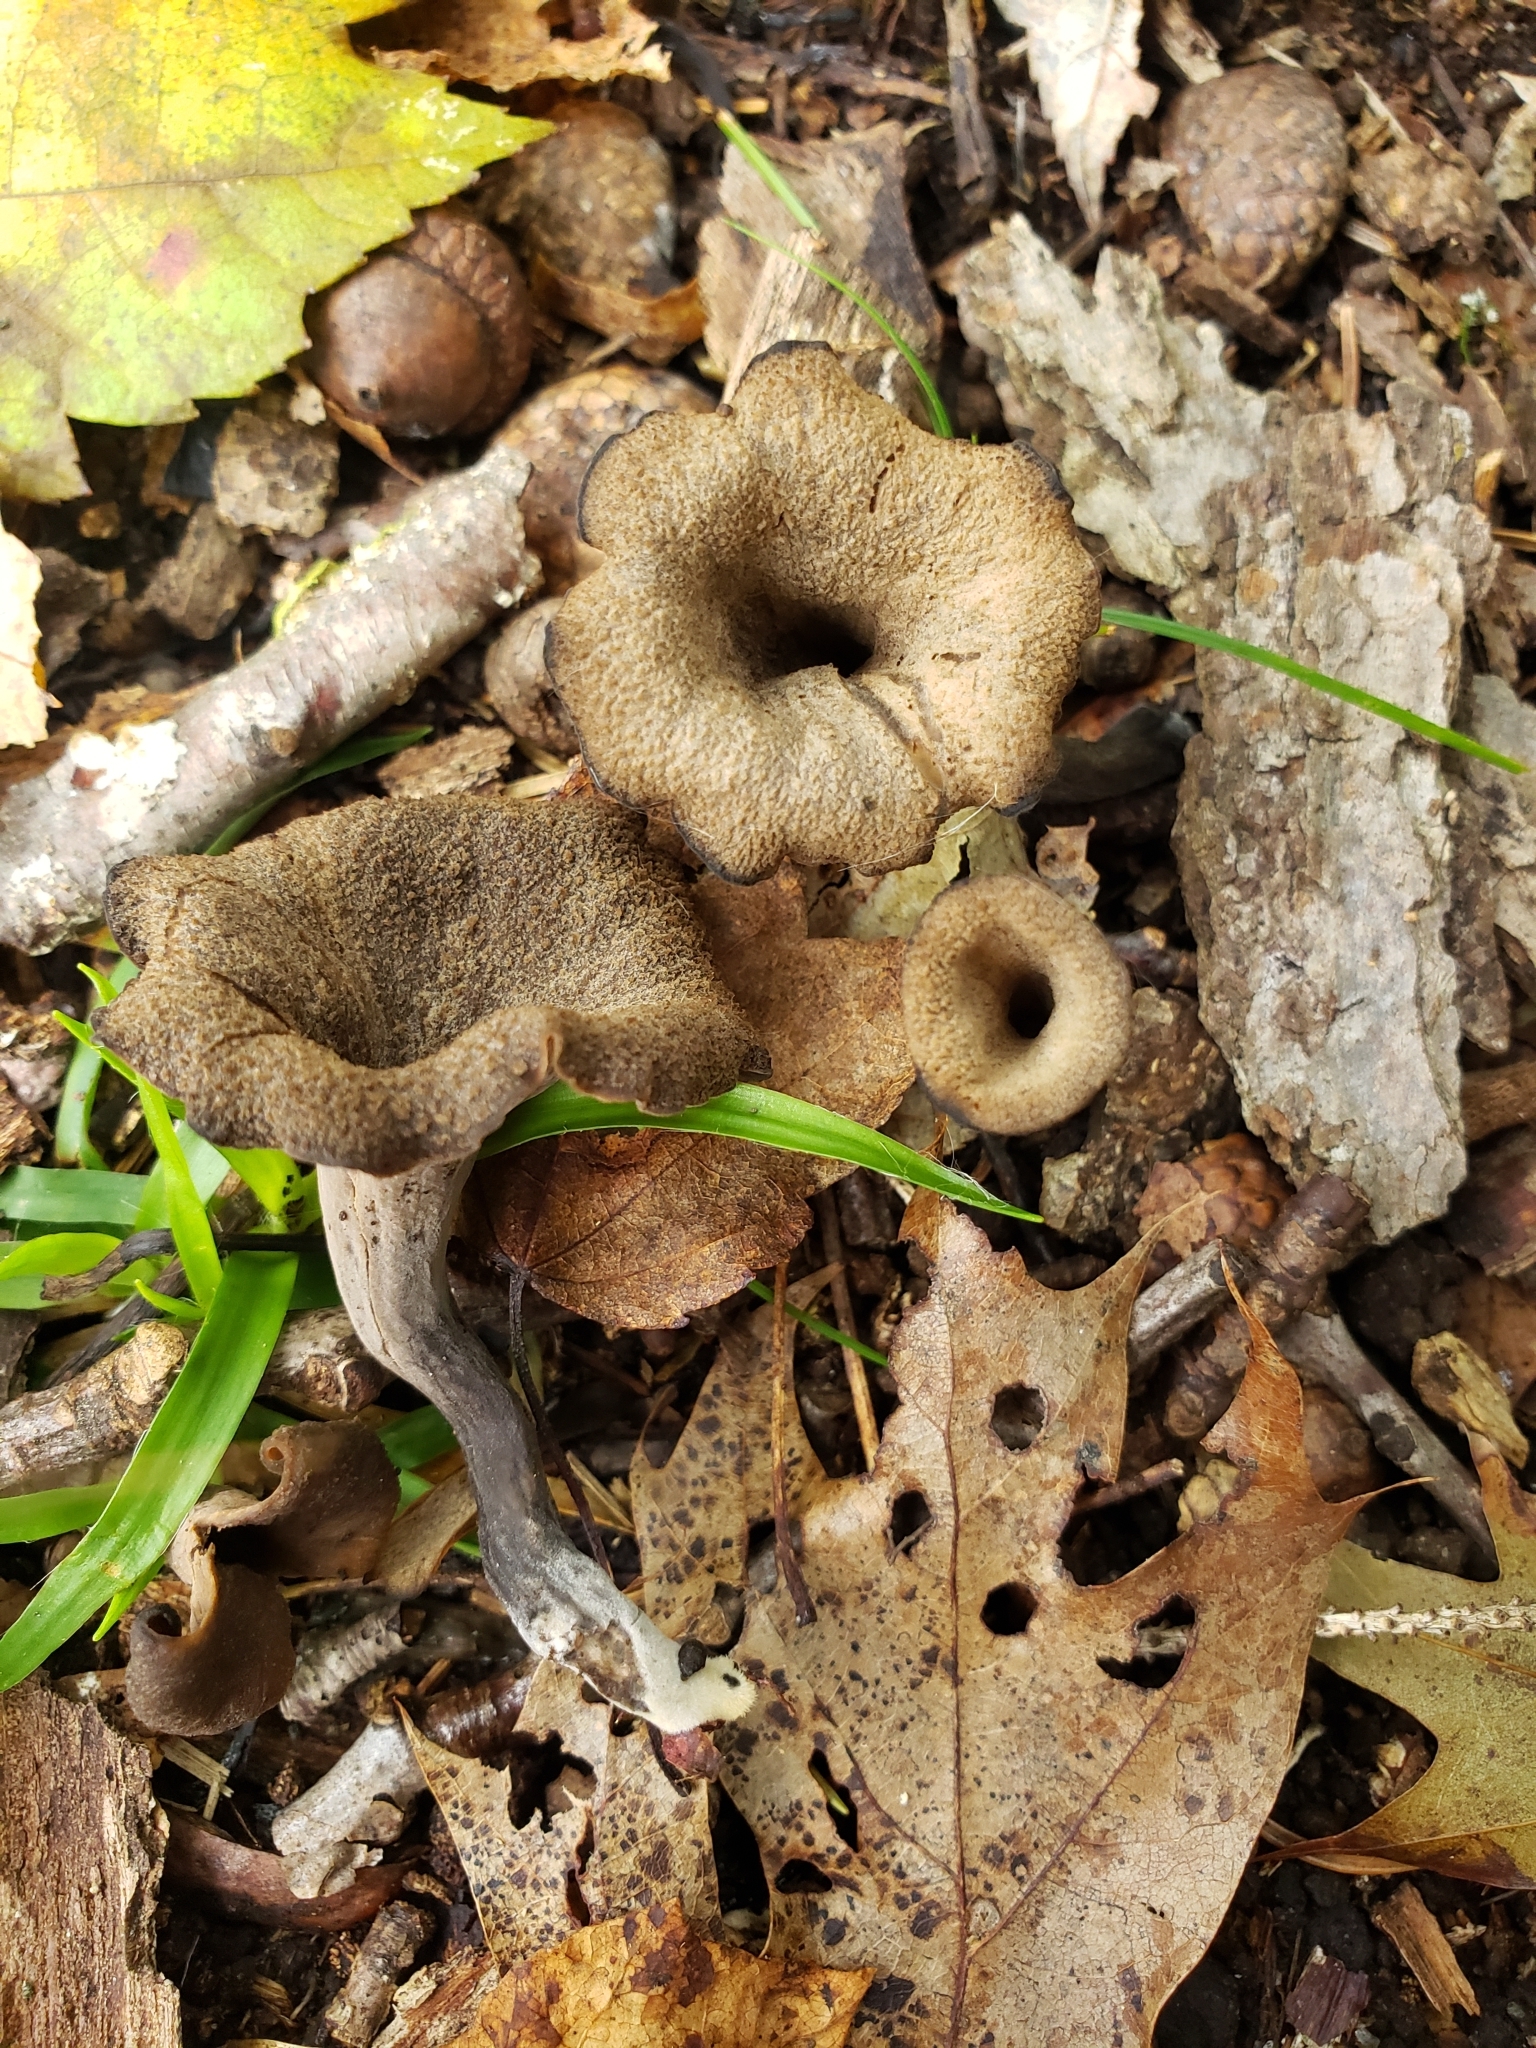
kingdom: Fungi
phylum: Basidiomycota
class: Agaricomycetes
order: Cantharellales
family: Hydnaceae
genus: Craterellus
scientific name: Craterellus cornucopioides
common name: Horn of plenty
